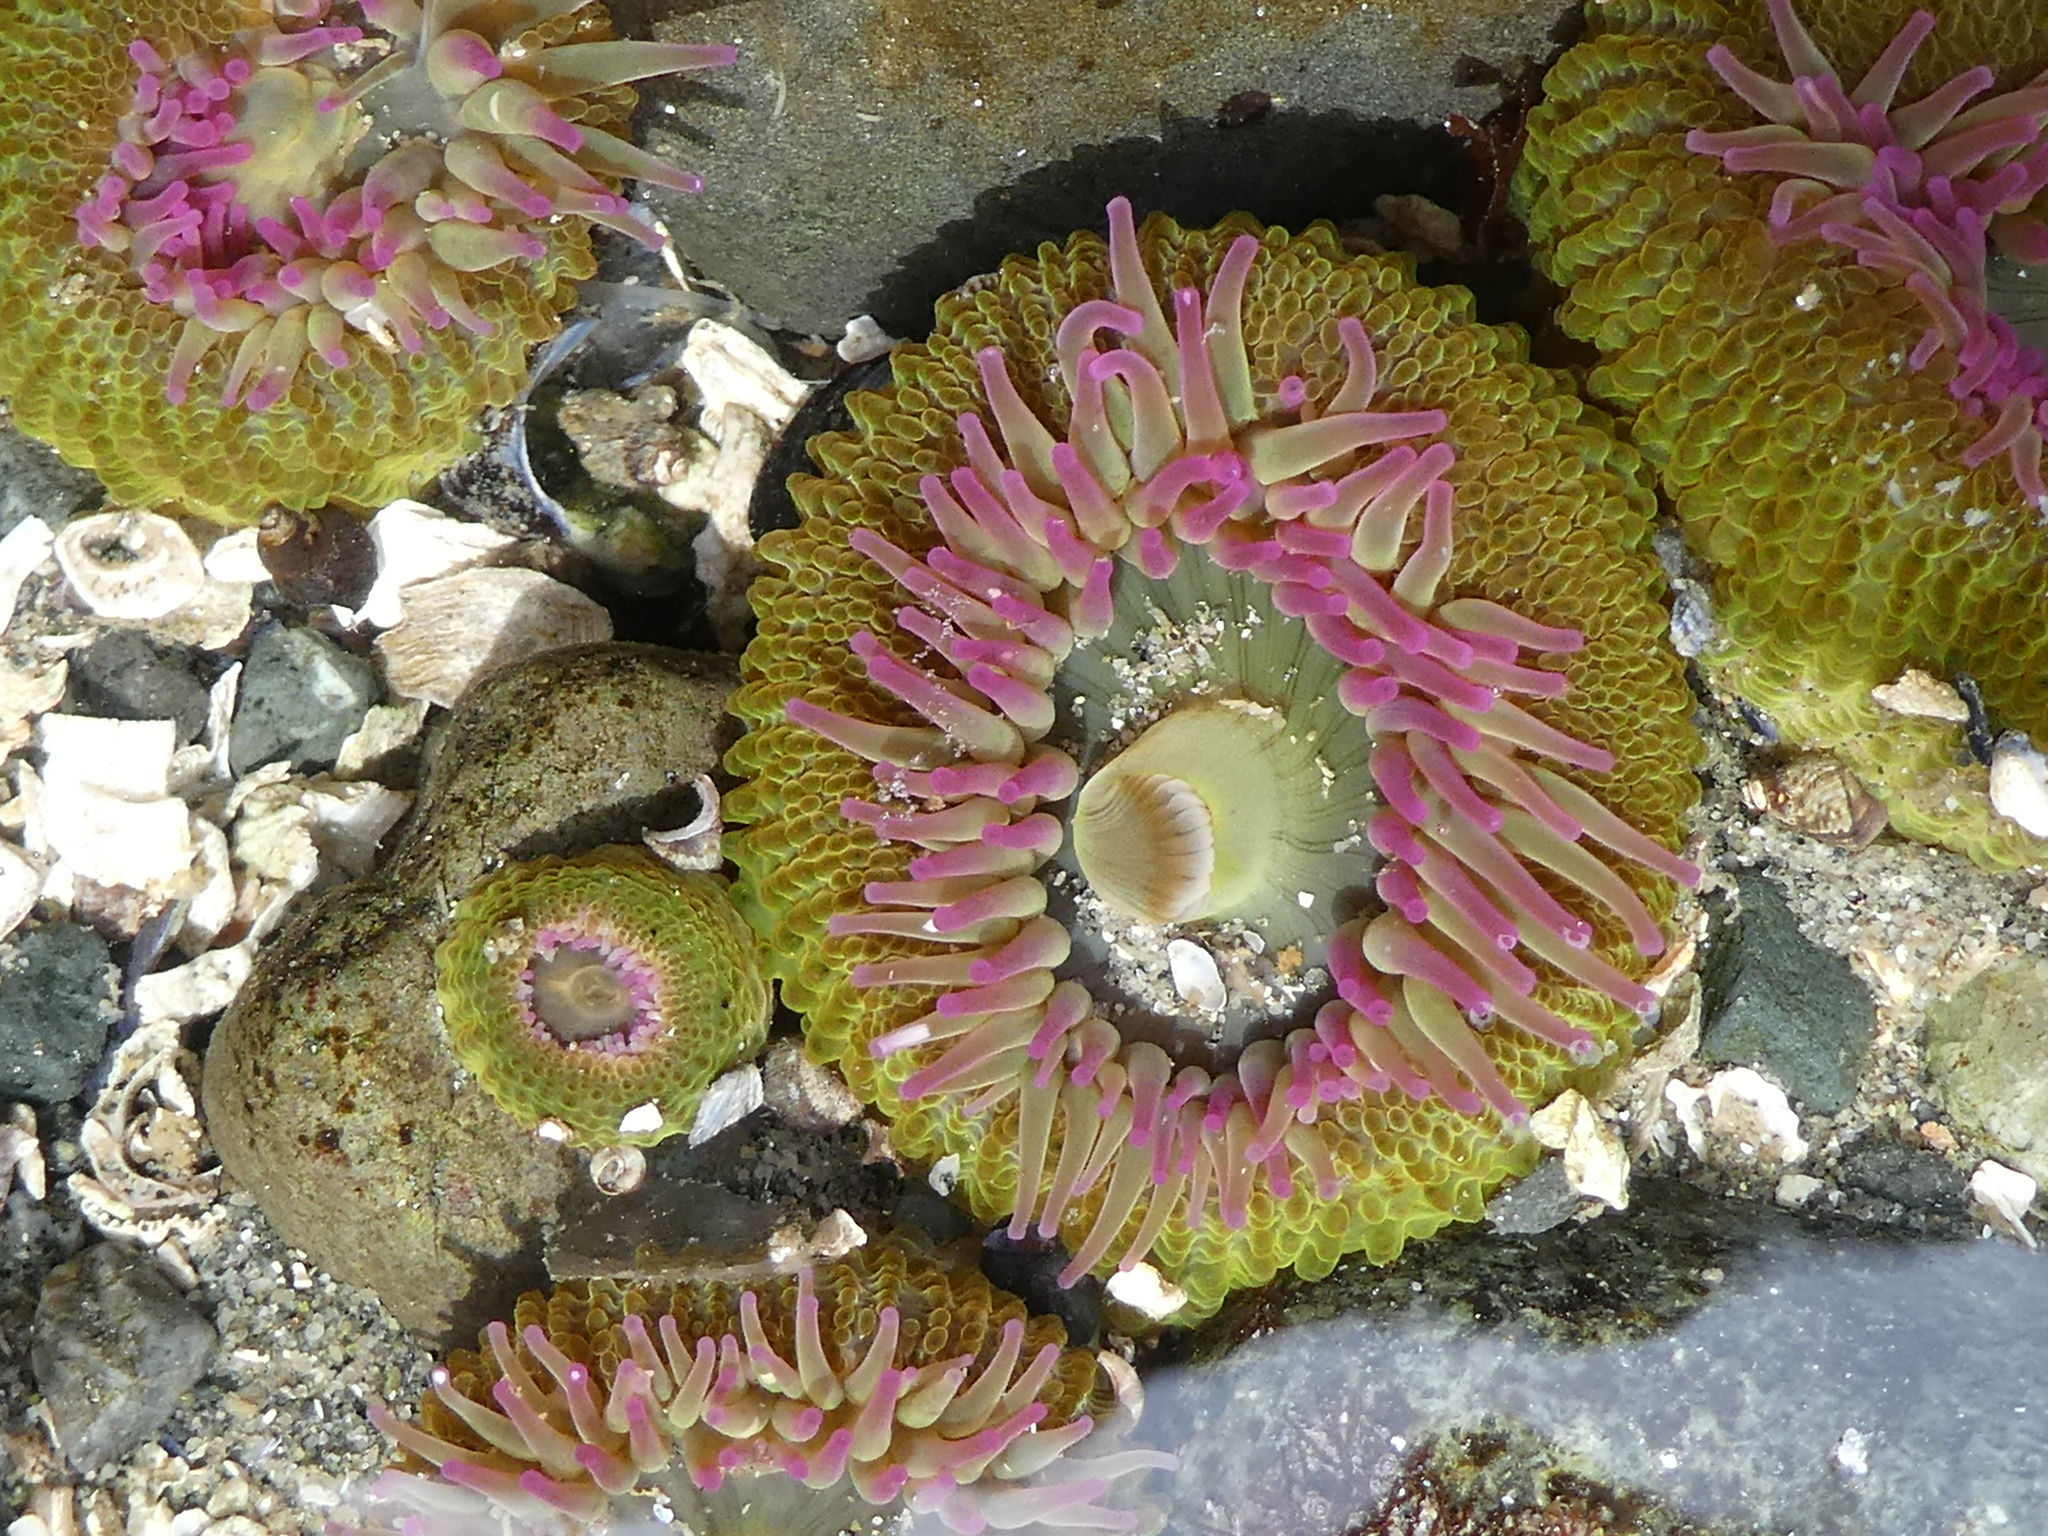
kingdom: Animalia
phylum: Cnidaria
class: Anthozoa
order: Actiniaria
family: Actiniidae
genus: Anthopleura
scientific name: Anthopleura elegantissima
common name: Clonal anemone
